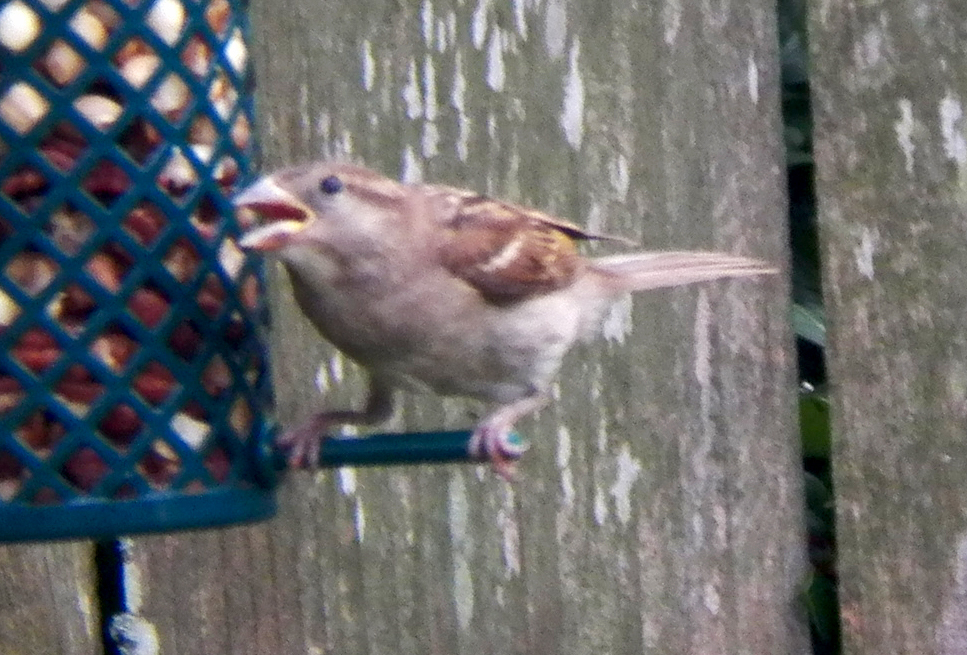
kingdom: Animalia
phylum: Chordata
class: Aves
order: Passeriformes
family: Passeridae
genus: Passer
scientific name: Passer domesticus
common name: House sparrow
